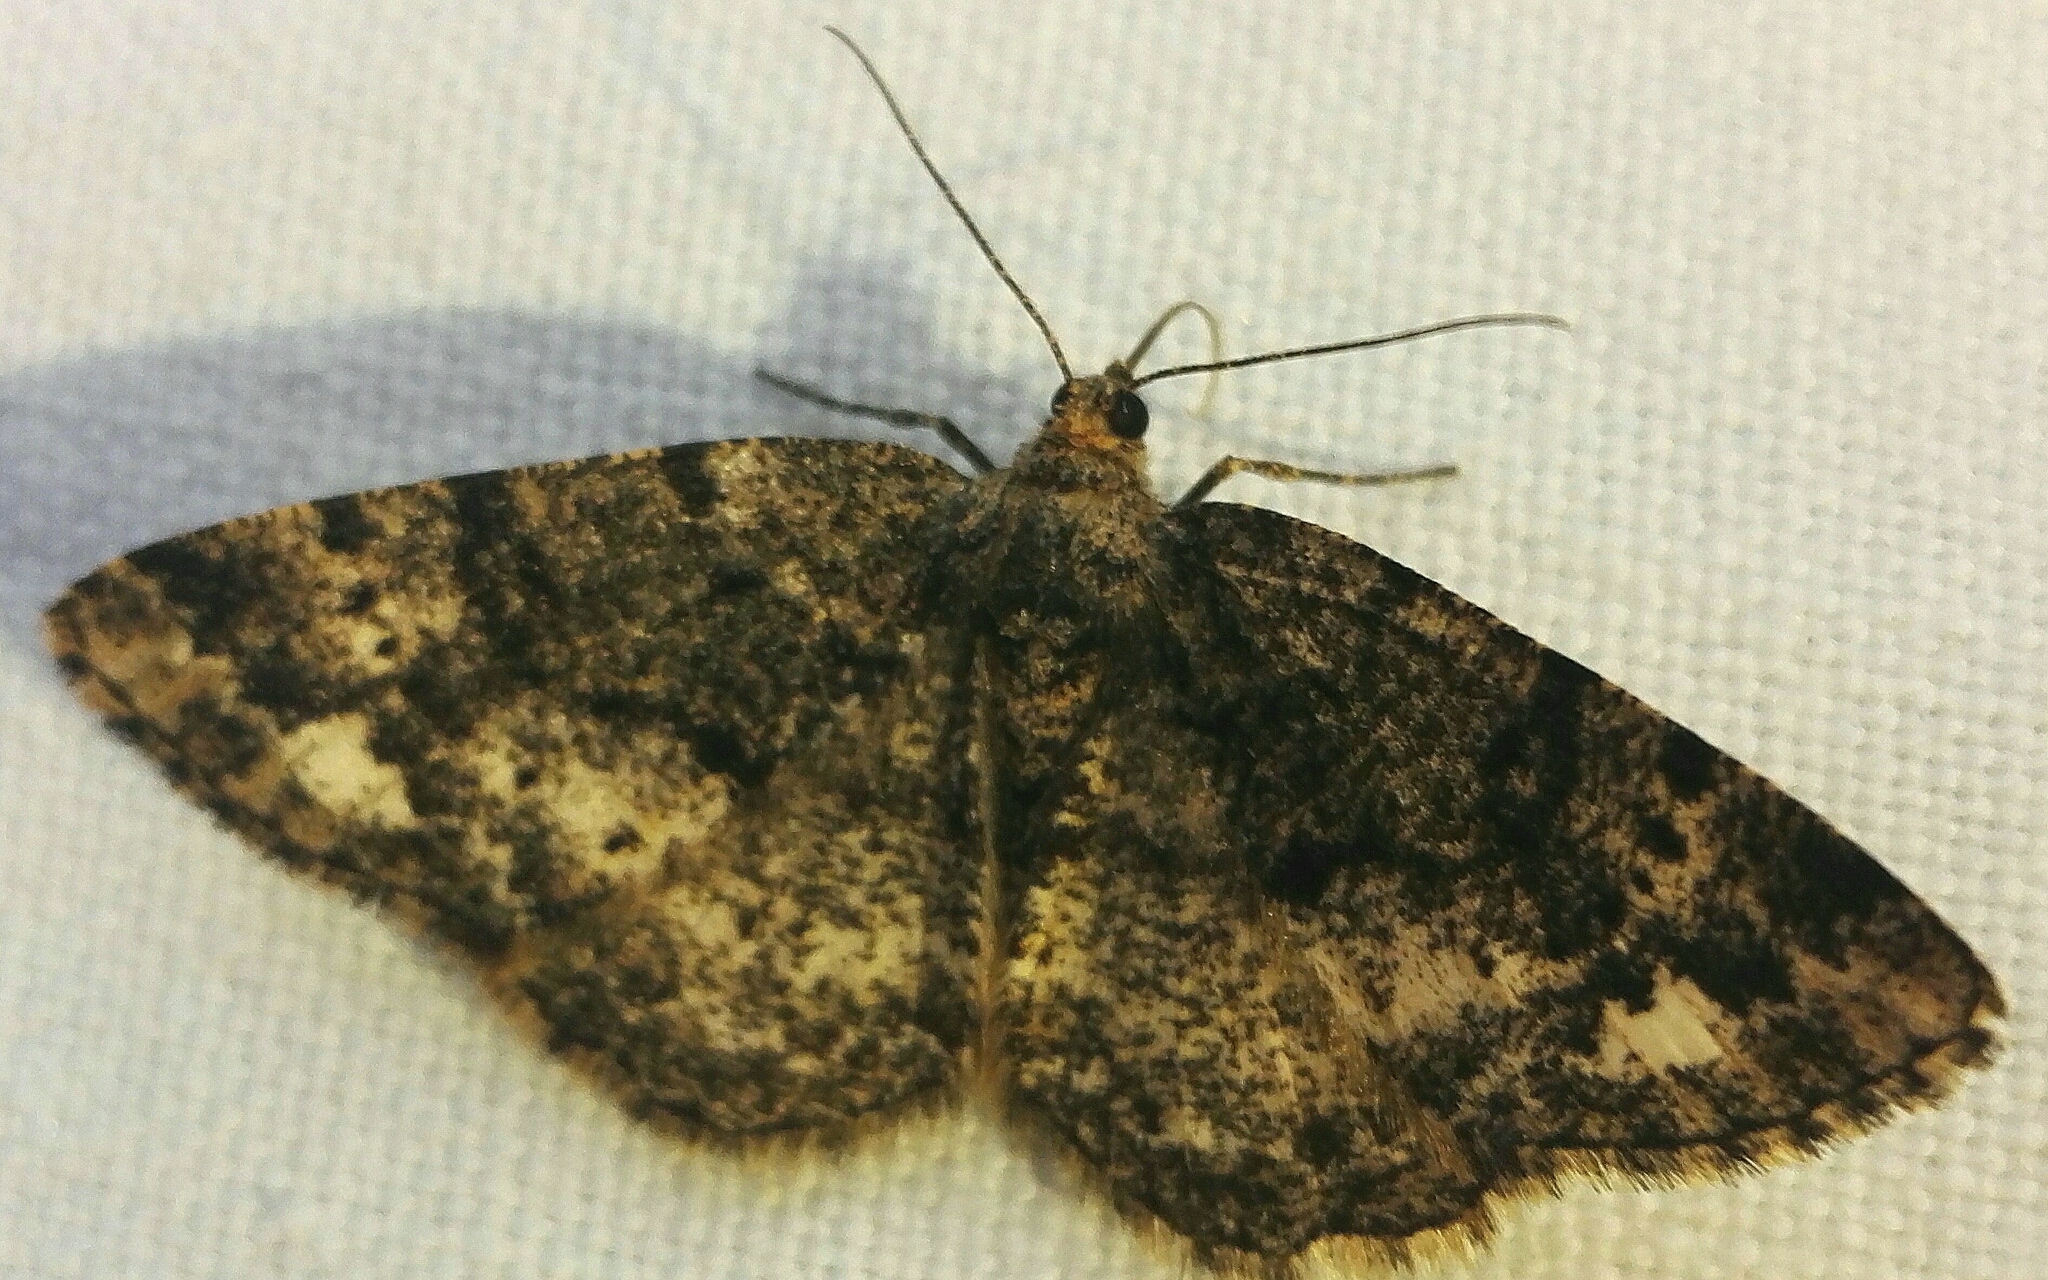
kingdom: Animalia
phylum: Arthropoda
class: Insecta
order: Lepidoptera
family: Geometridae
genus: Parectropis
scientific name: Parectropis similaria
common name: Brindled white-spot
